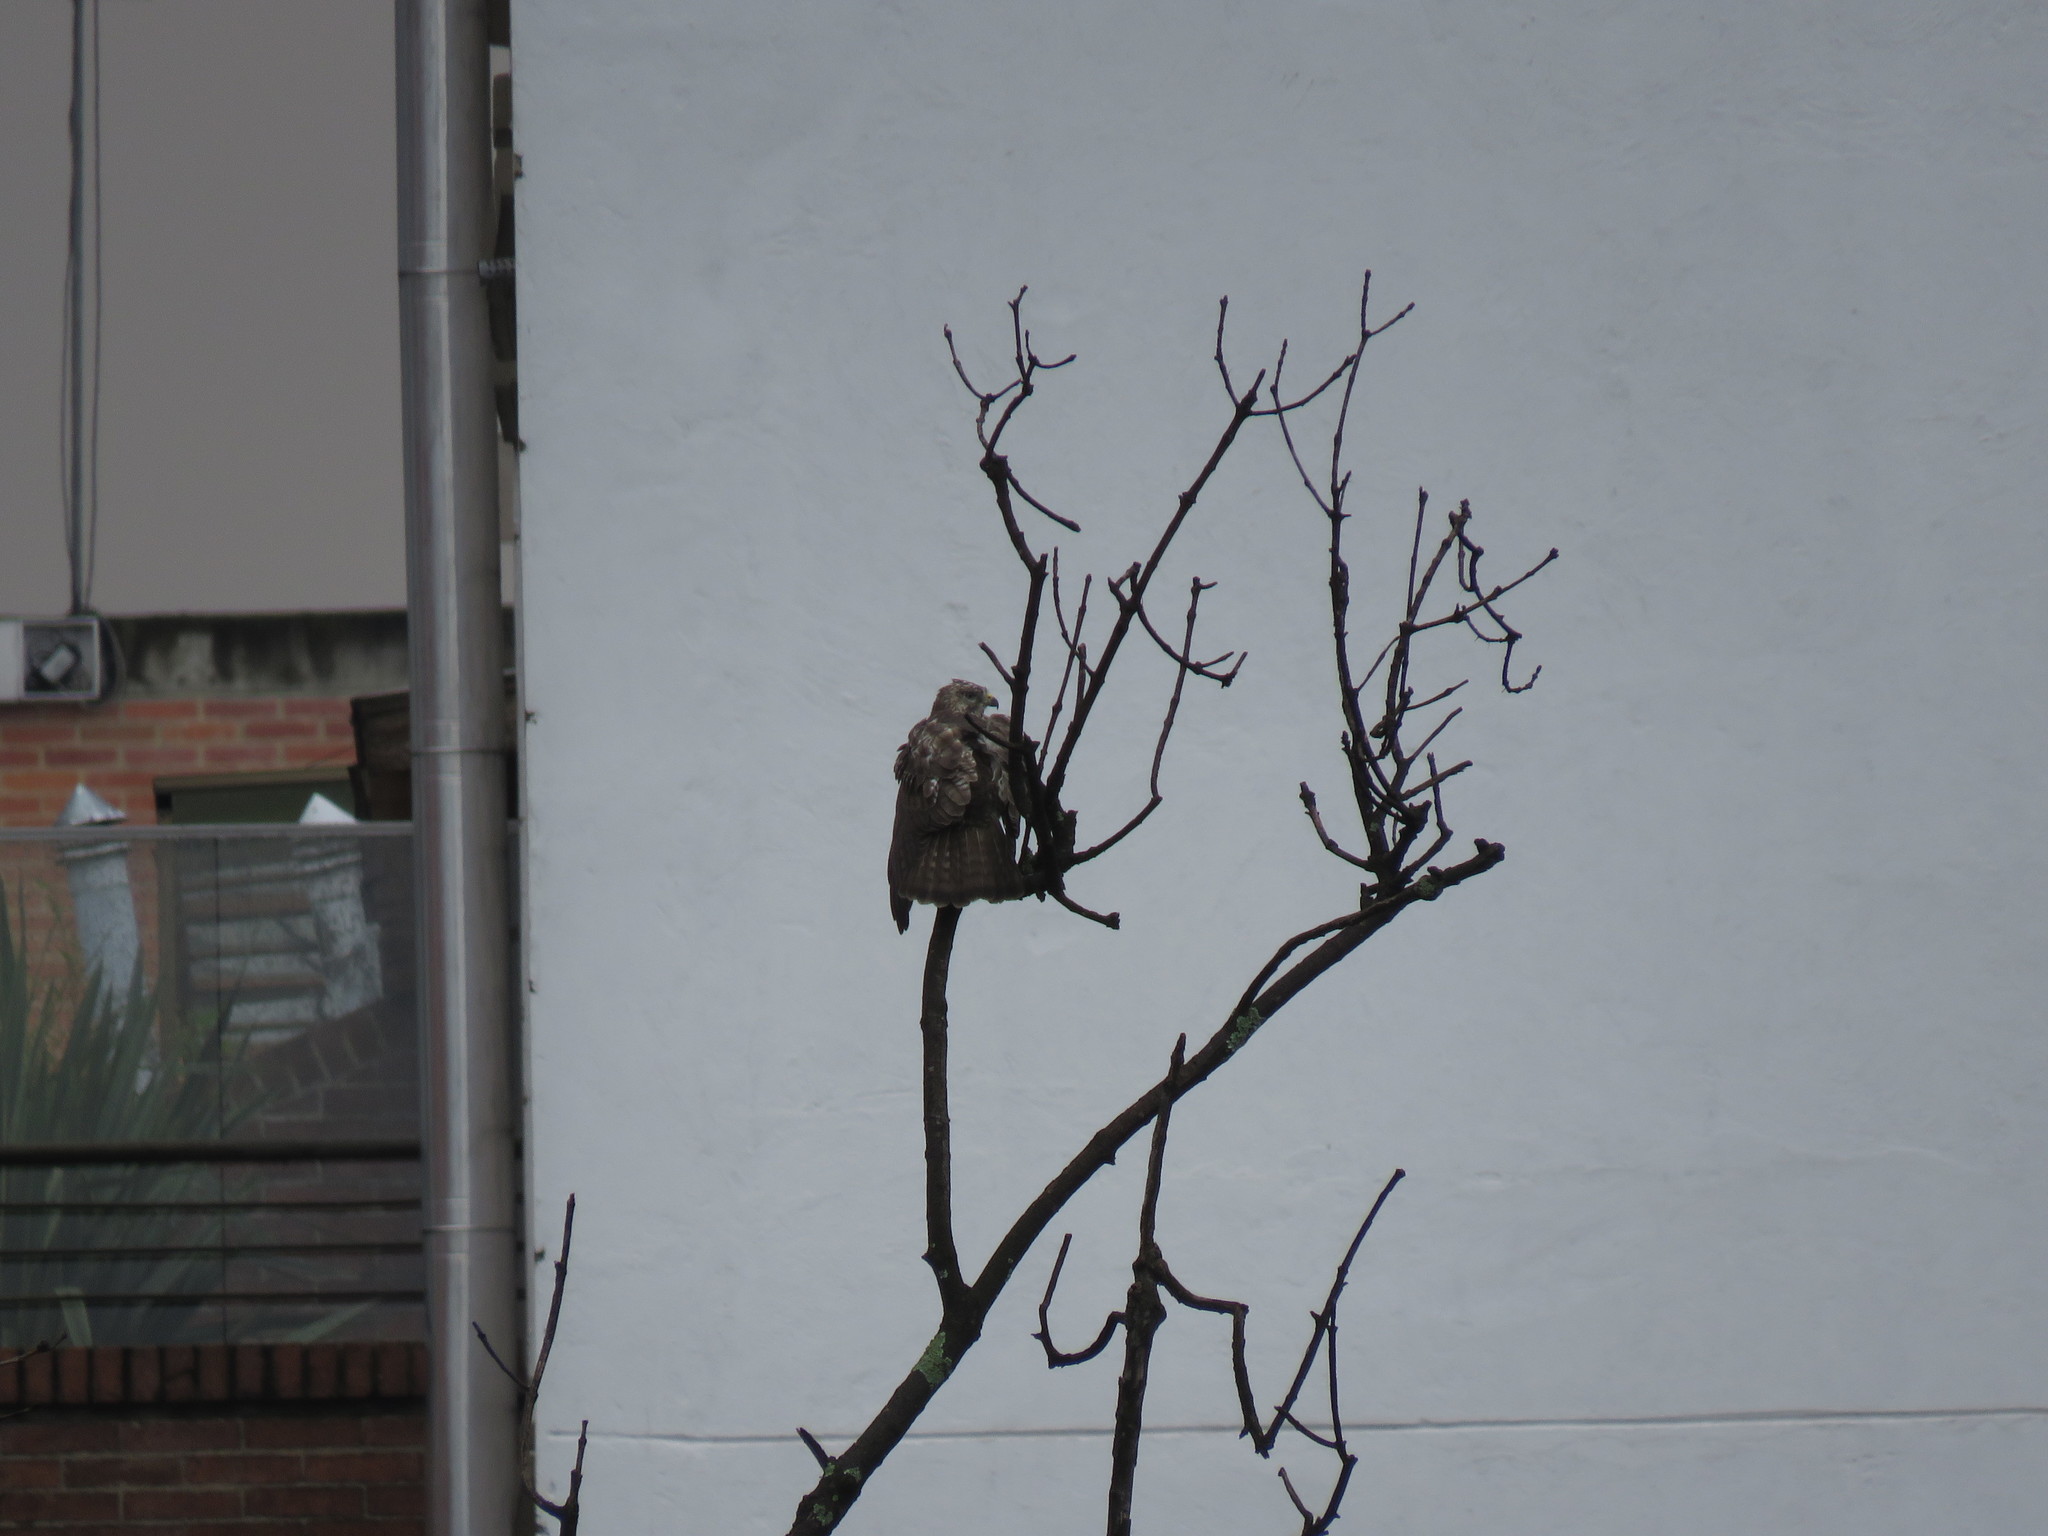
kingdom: Animalia
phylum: Chordata
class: Aves
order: Accipitriformes
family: Accipitridae
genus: Buteo
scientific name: Buteo platypterus
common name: Broad-winged hawk
